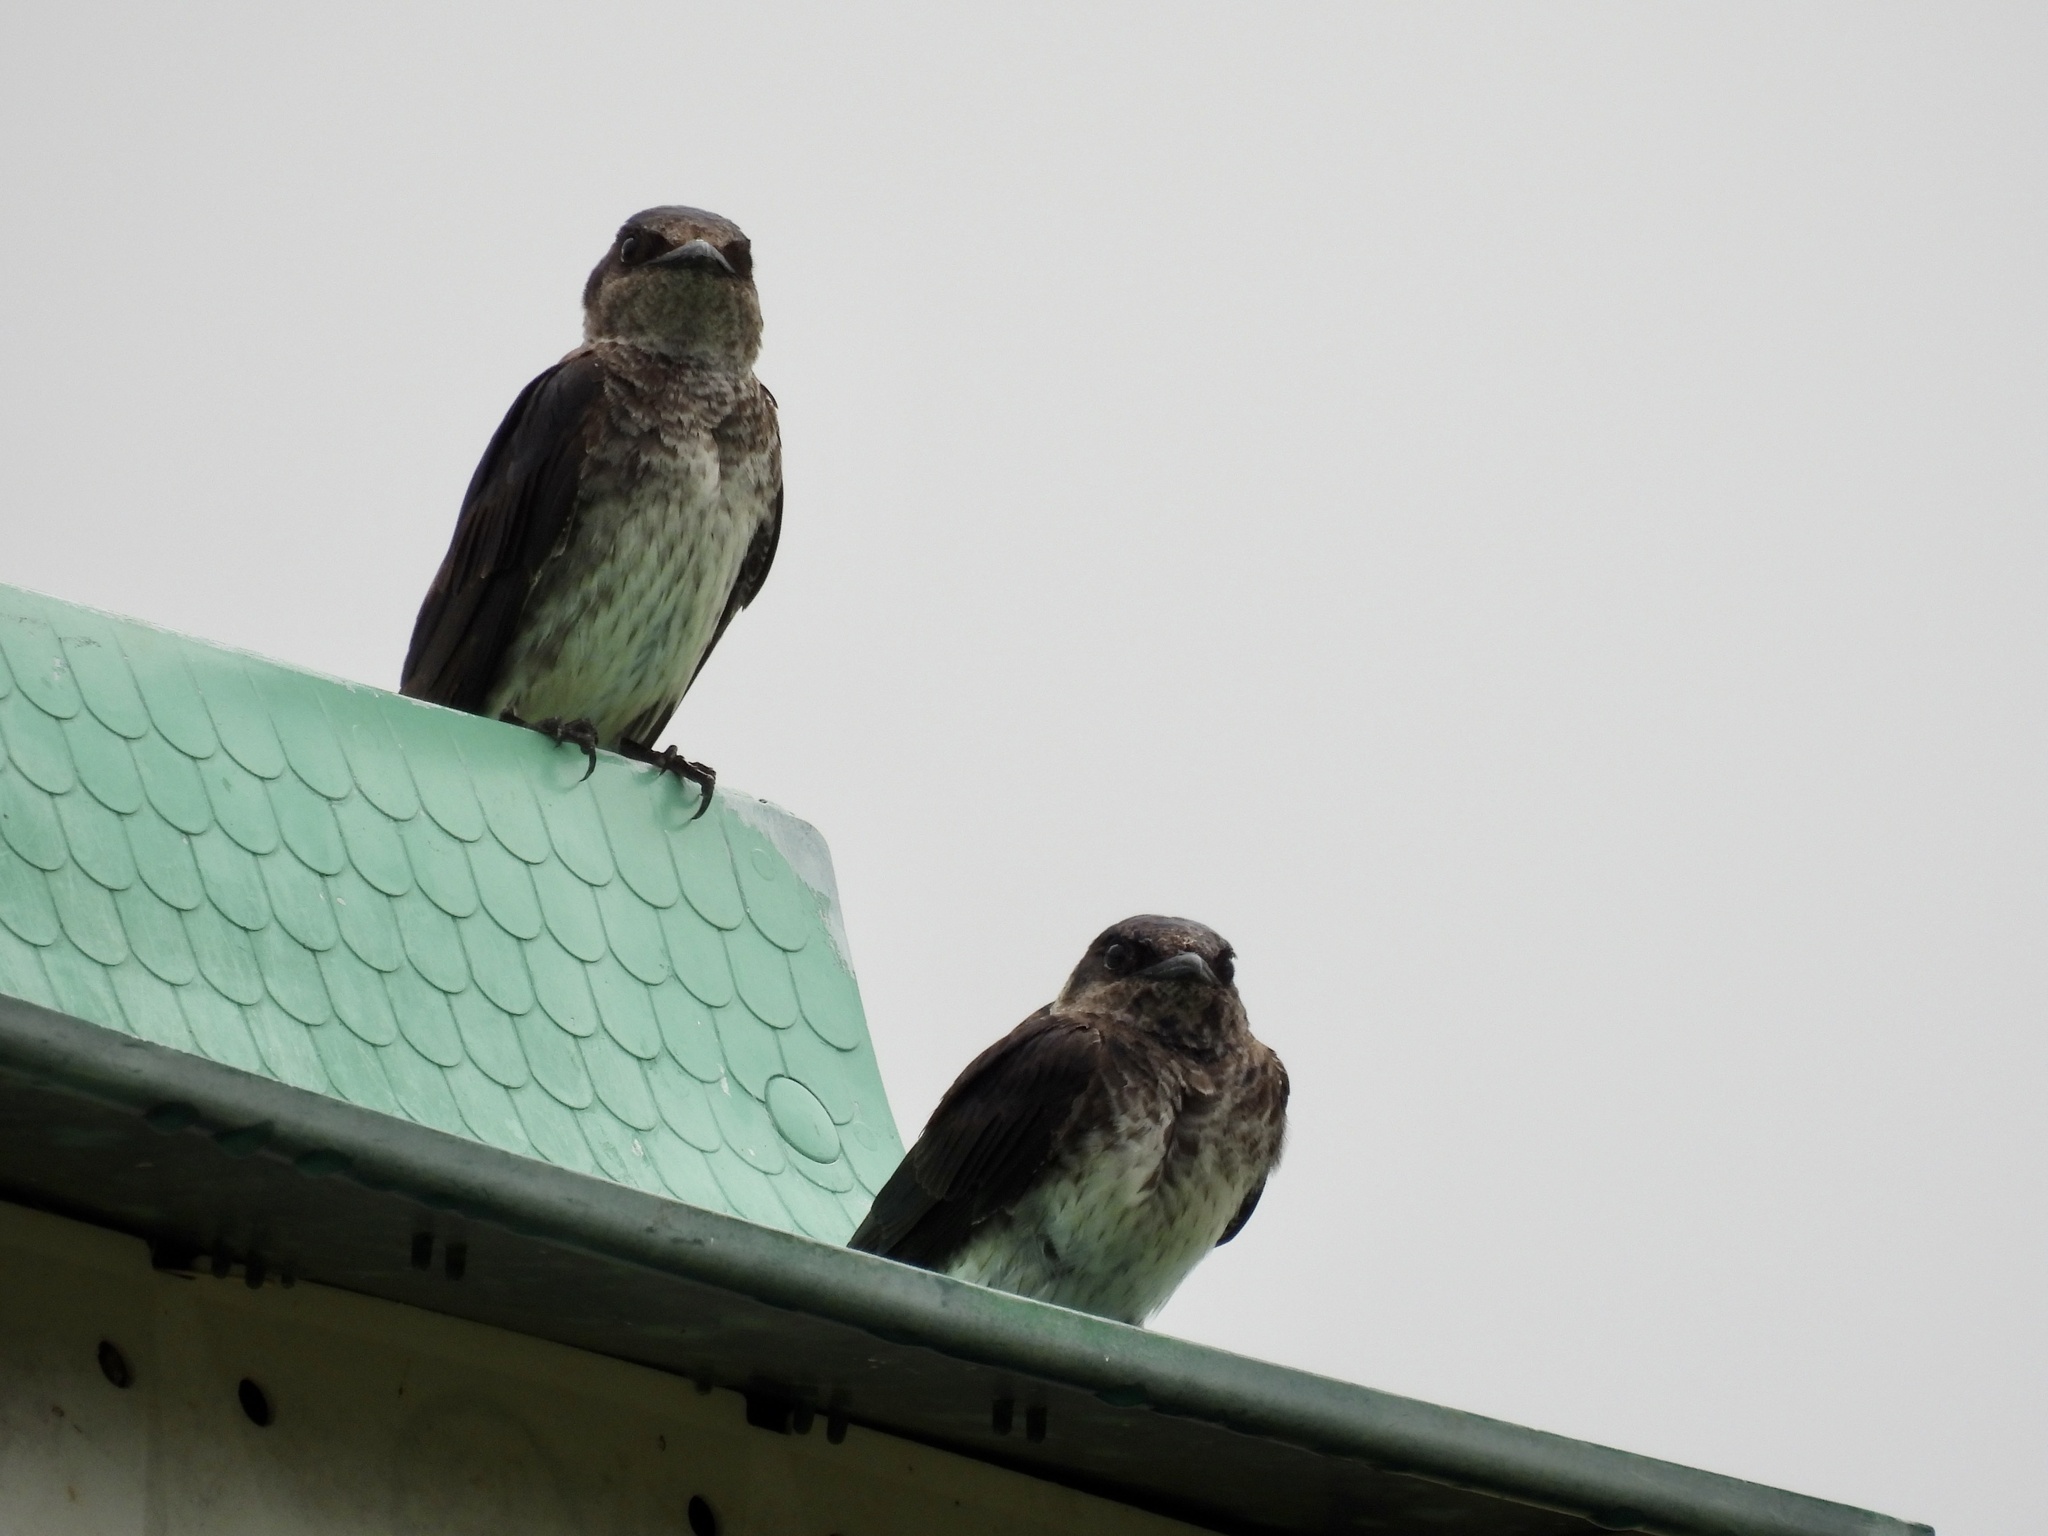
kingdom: Animalia
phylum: Chordata
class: Aves
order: Passeriformes
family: Hirundinidae
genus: Progne
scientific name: Progne subis
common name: Purple martin
